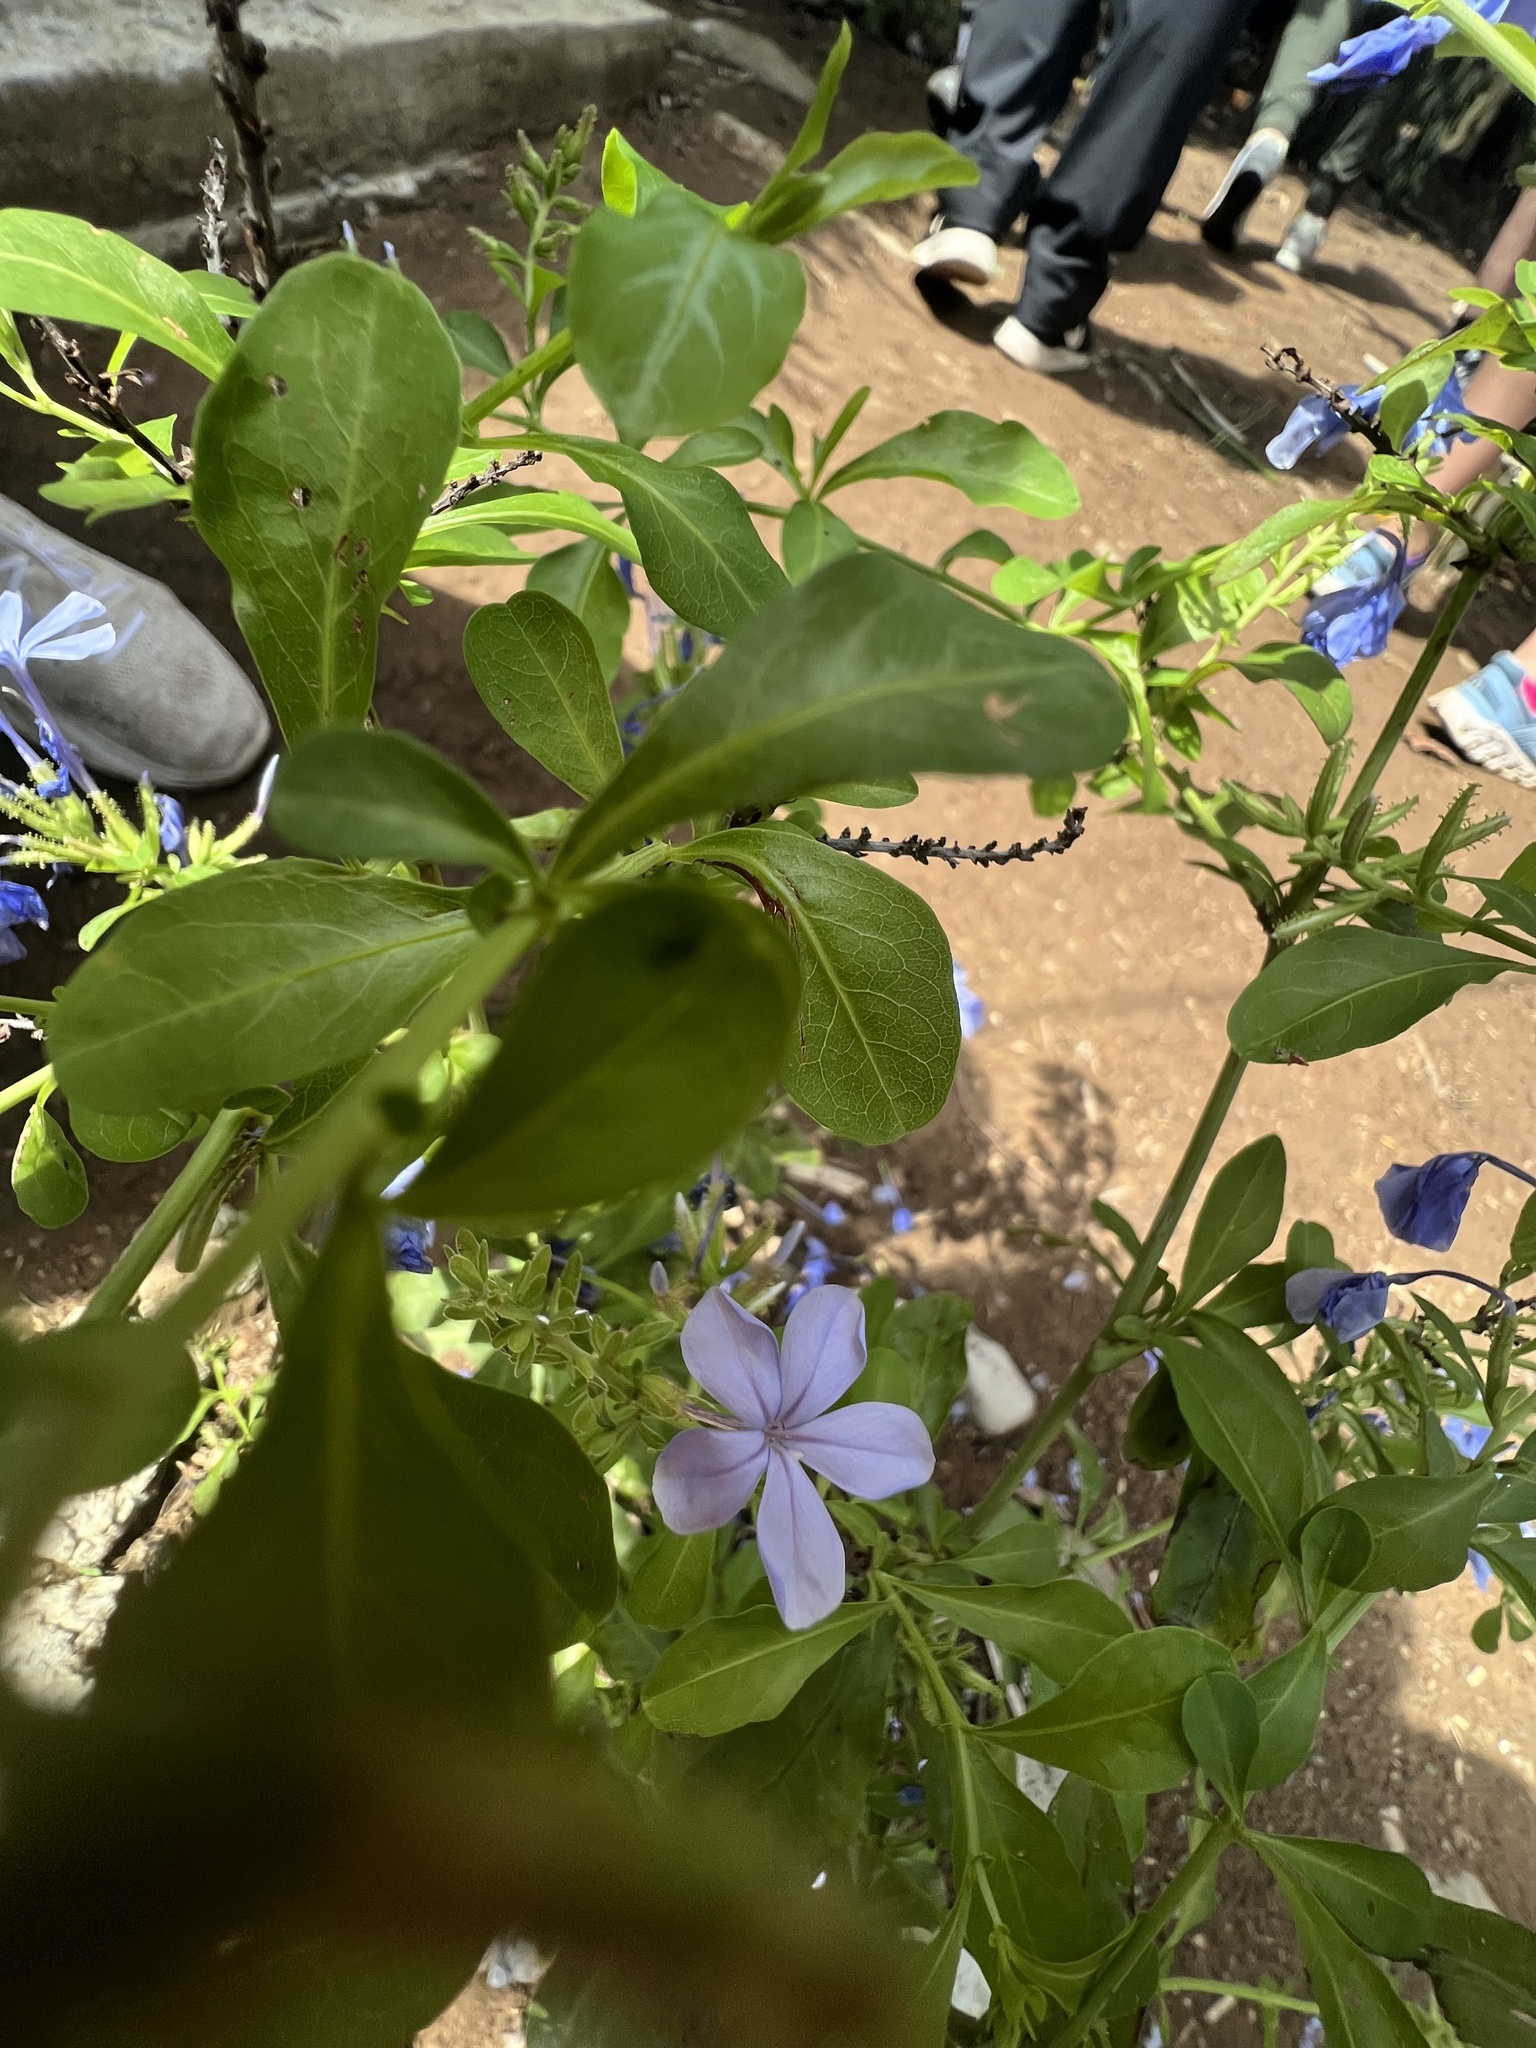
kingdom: Plantae
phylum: Tracheophyta
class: Magnoliopsida
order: Caryophyllales
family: Plumbaginaceae
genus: Plumbago
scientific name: Plumbago auriculata
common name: Cape leadwort
